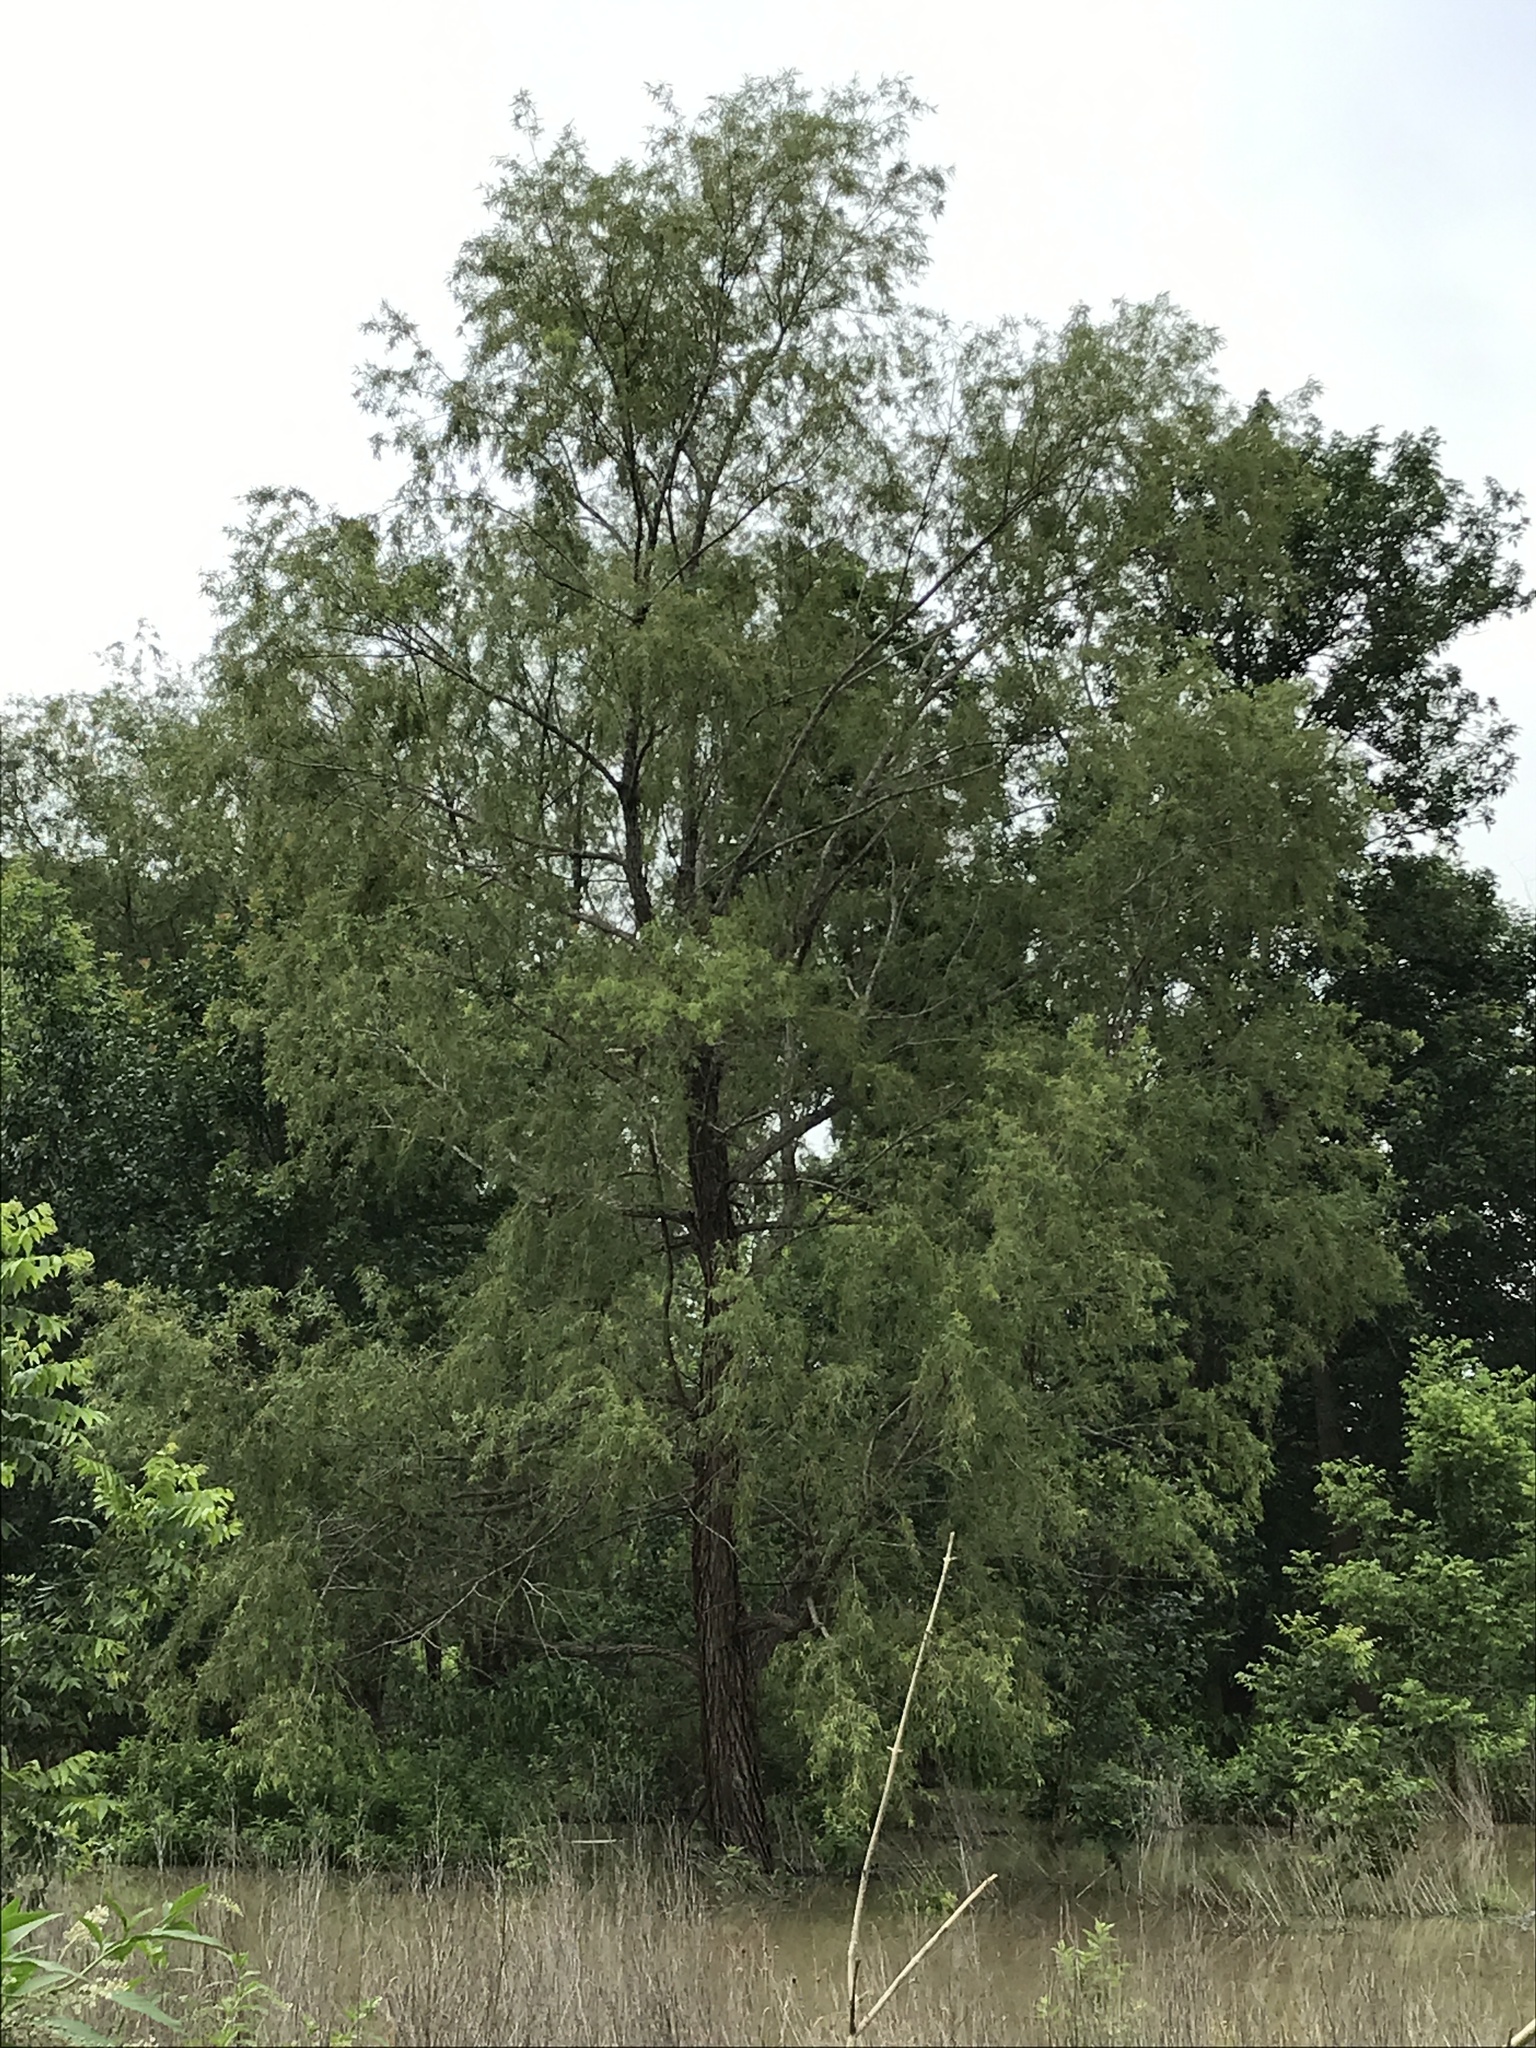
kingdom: Plantae
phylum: Tracheophyta
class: Magnoliopsida
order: Malpighiales
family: Salicaceae
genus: Salix
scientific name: Salix nigra
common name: Black willow
